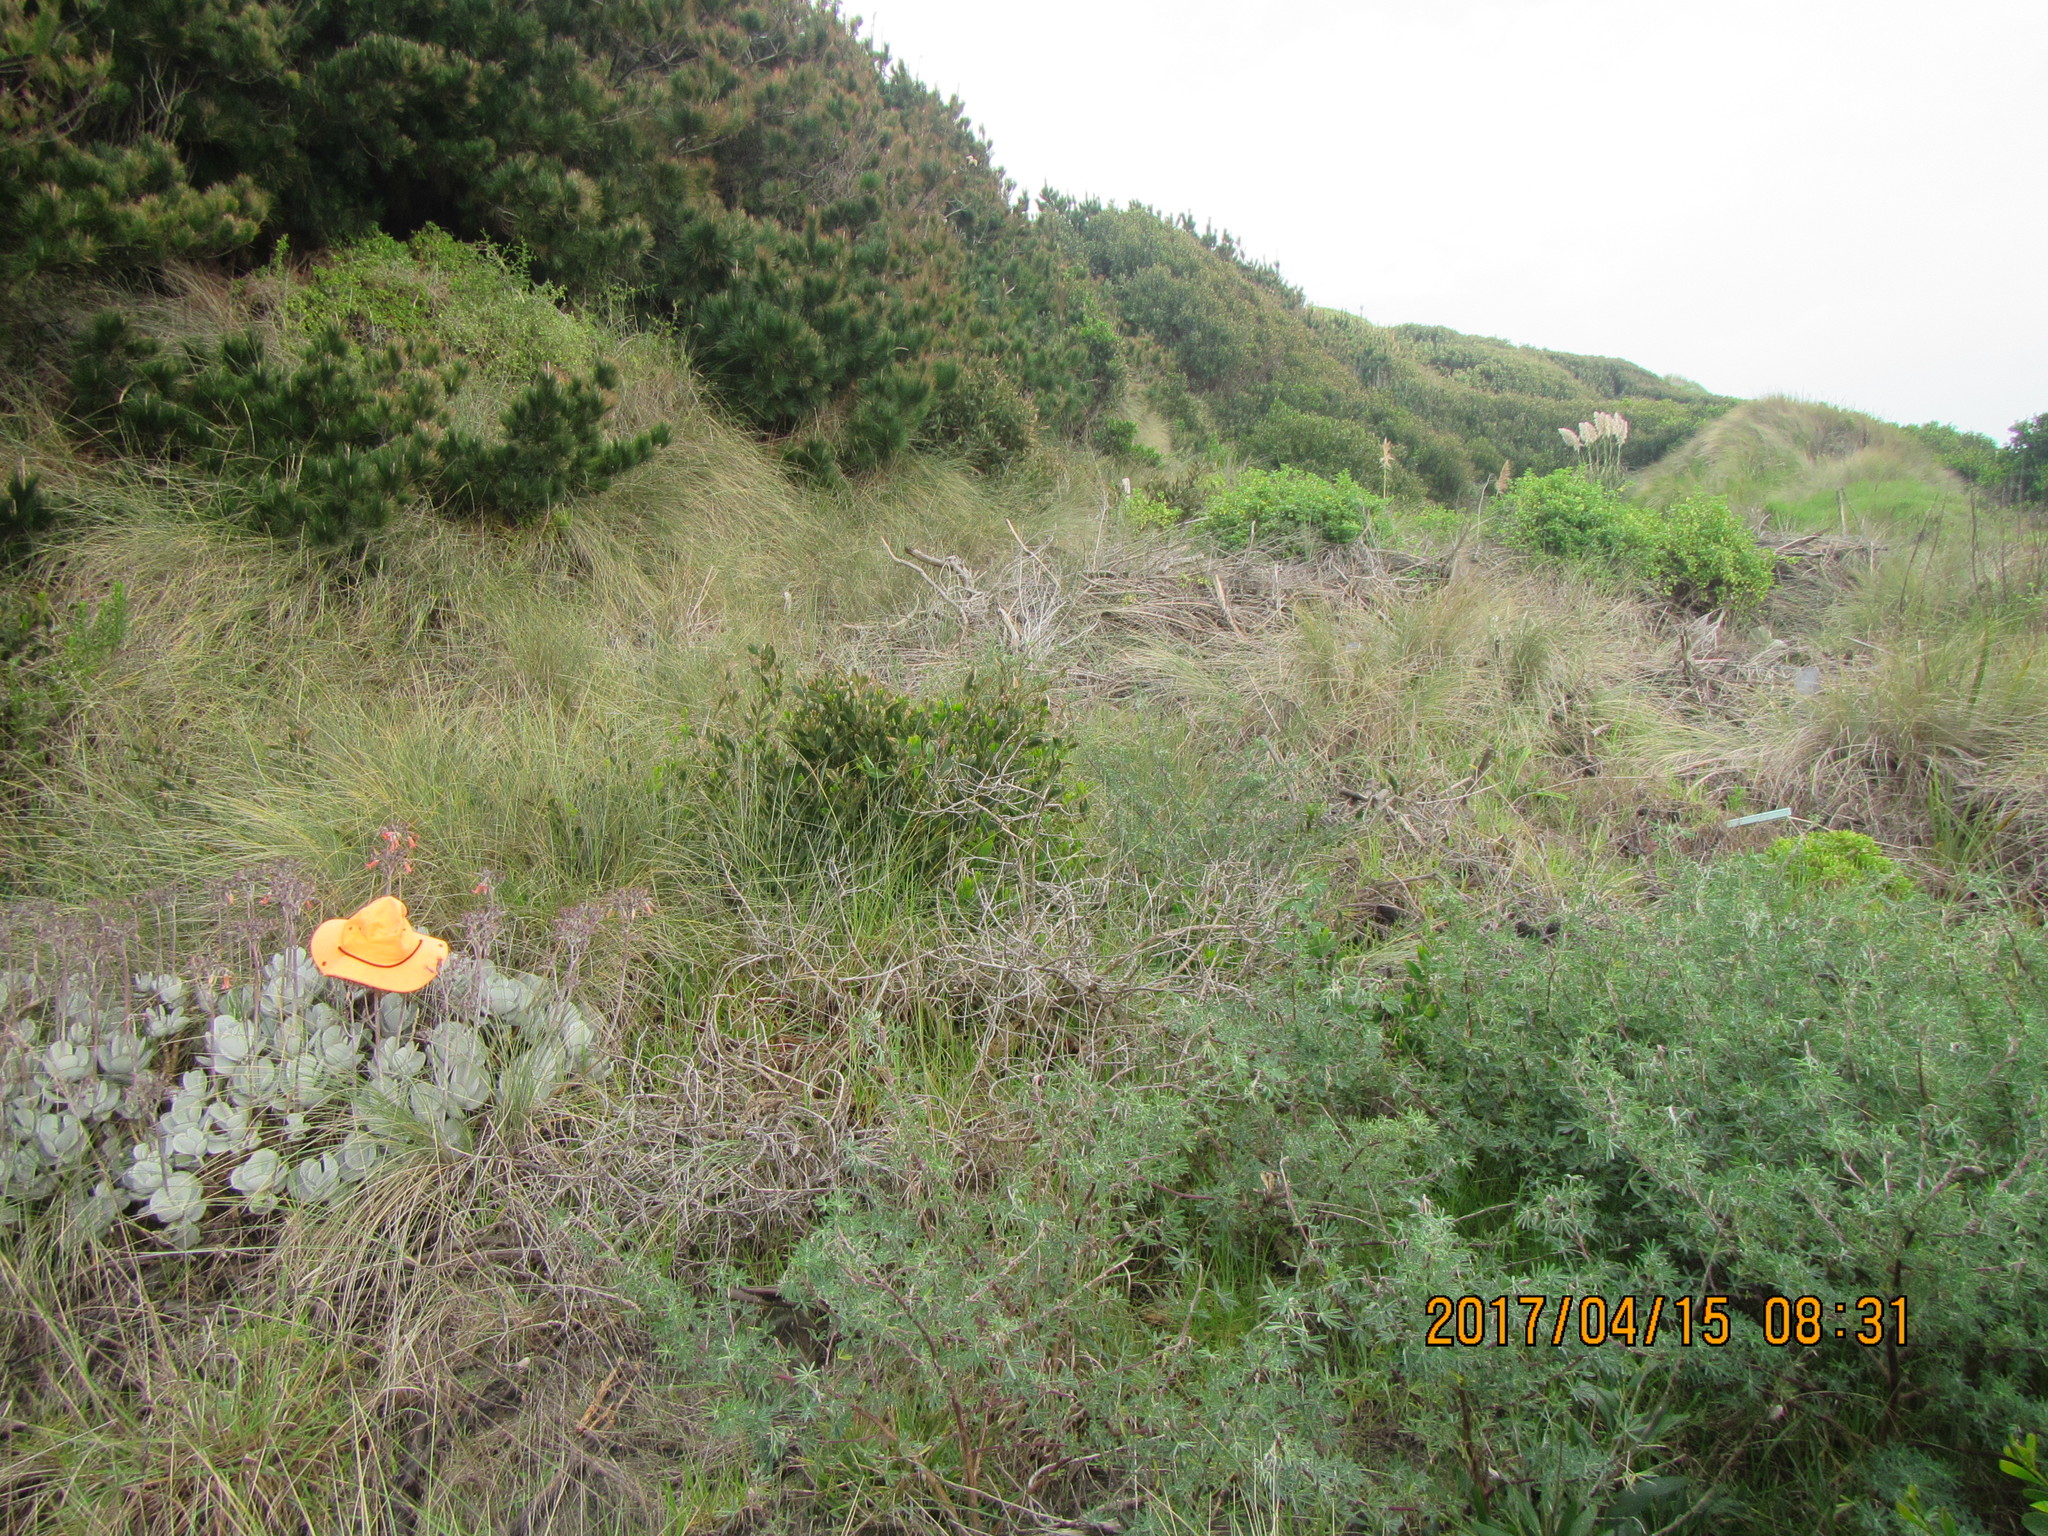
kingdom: Plantae
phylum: Tracheophyta
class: Magnoliopsida
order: Saxifragales
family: Crassulaceae
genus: Cotyledon
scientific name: Cotyledon orbiculata
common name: Pig's ear
